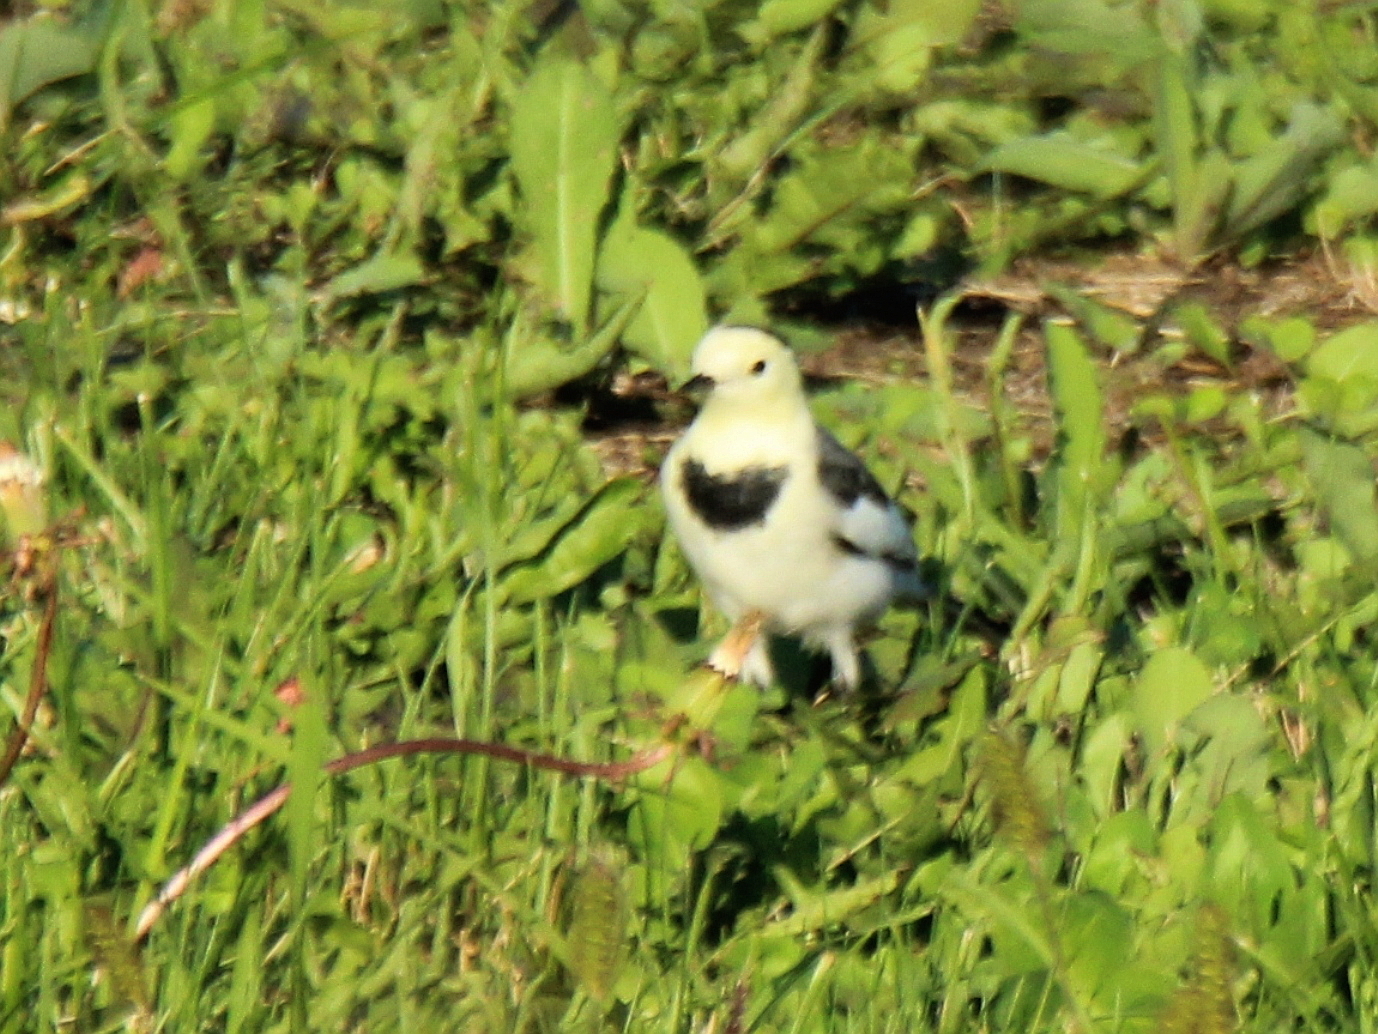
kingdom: Animalia
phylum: Chordata
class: Aves
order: Passeriformes
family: Motacillidae
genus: Motacilla
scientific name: Motacilla alba
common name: White wagtail
